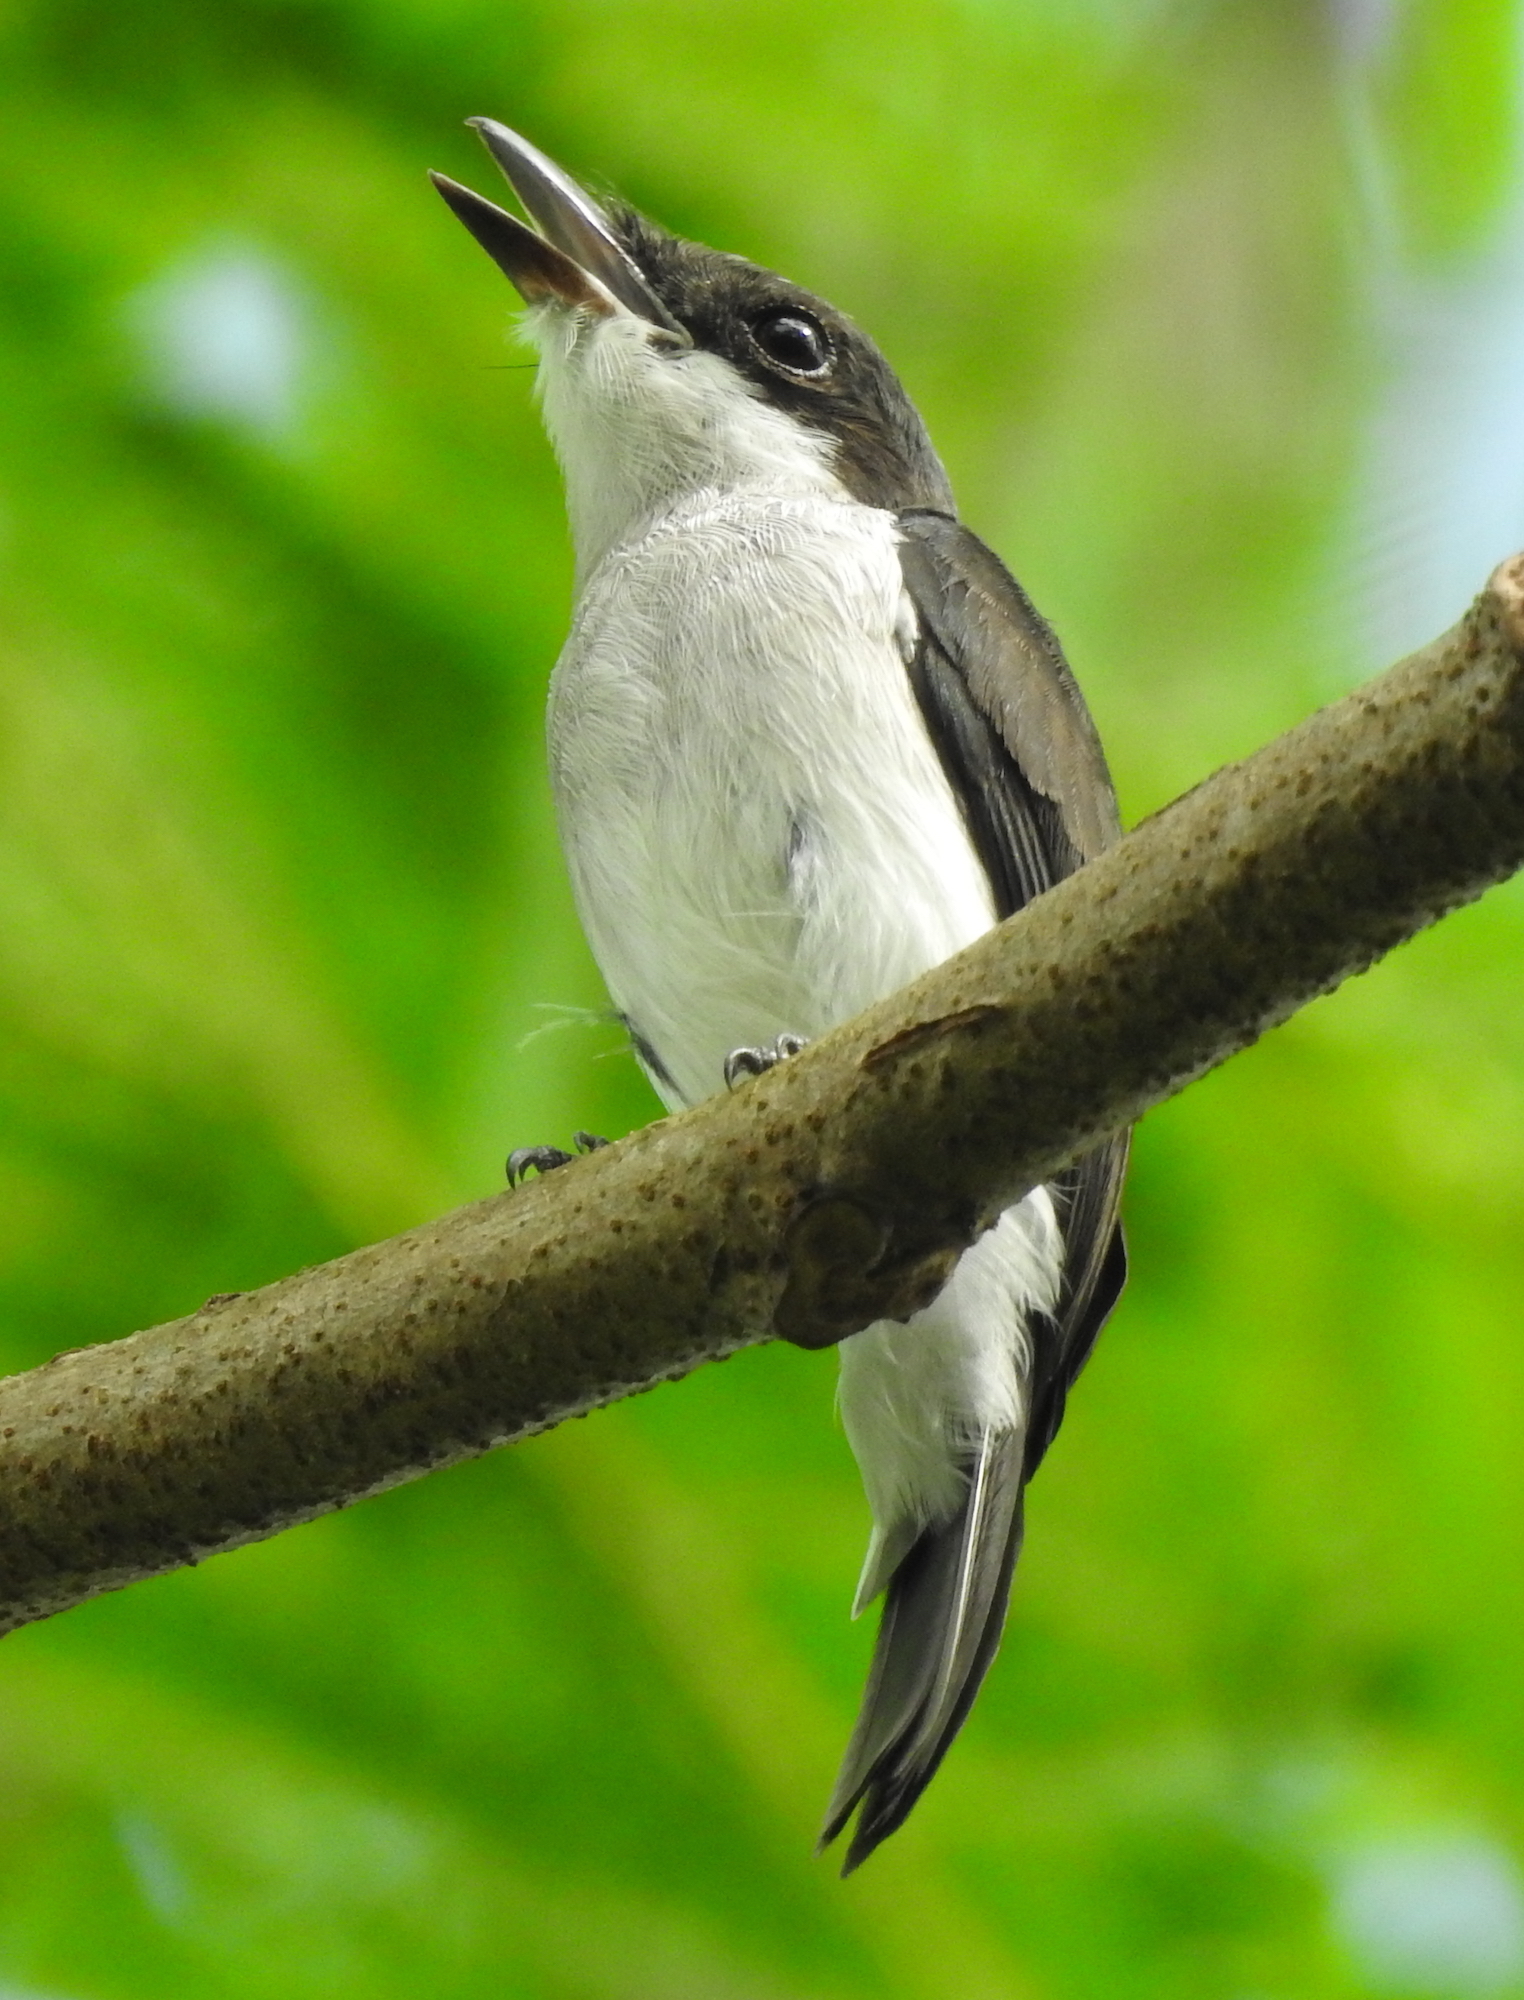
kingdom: Animalia
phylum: Chordata
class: Aves
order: Passeriformes
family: Tephrodornithidae
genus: Hemipus
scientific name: Hemipus hirundinaceus
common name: Black-winged flycatcher-shrike
